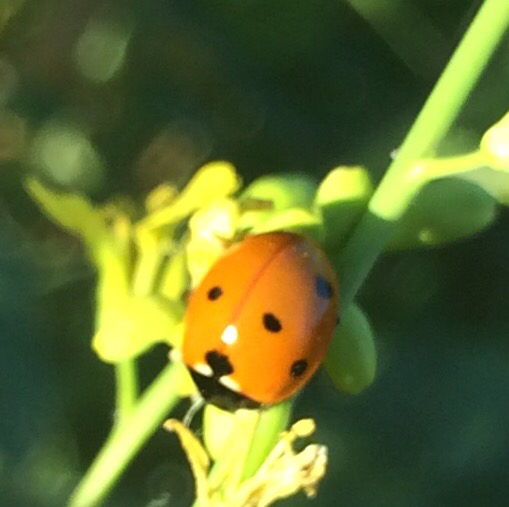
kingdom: Animalia
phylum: Arthropoda
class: Insecta
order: Coleoptera
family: Coccinellidae
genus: Coccinella
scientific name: Coccinella septempunctata
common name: Sevenspotted lady beetle
